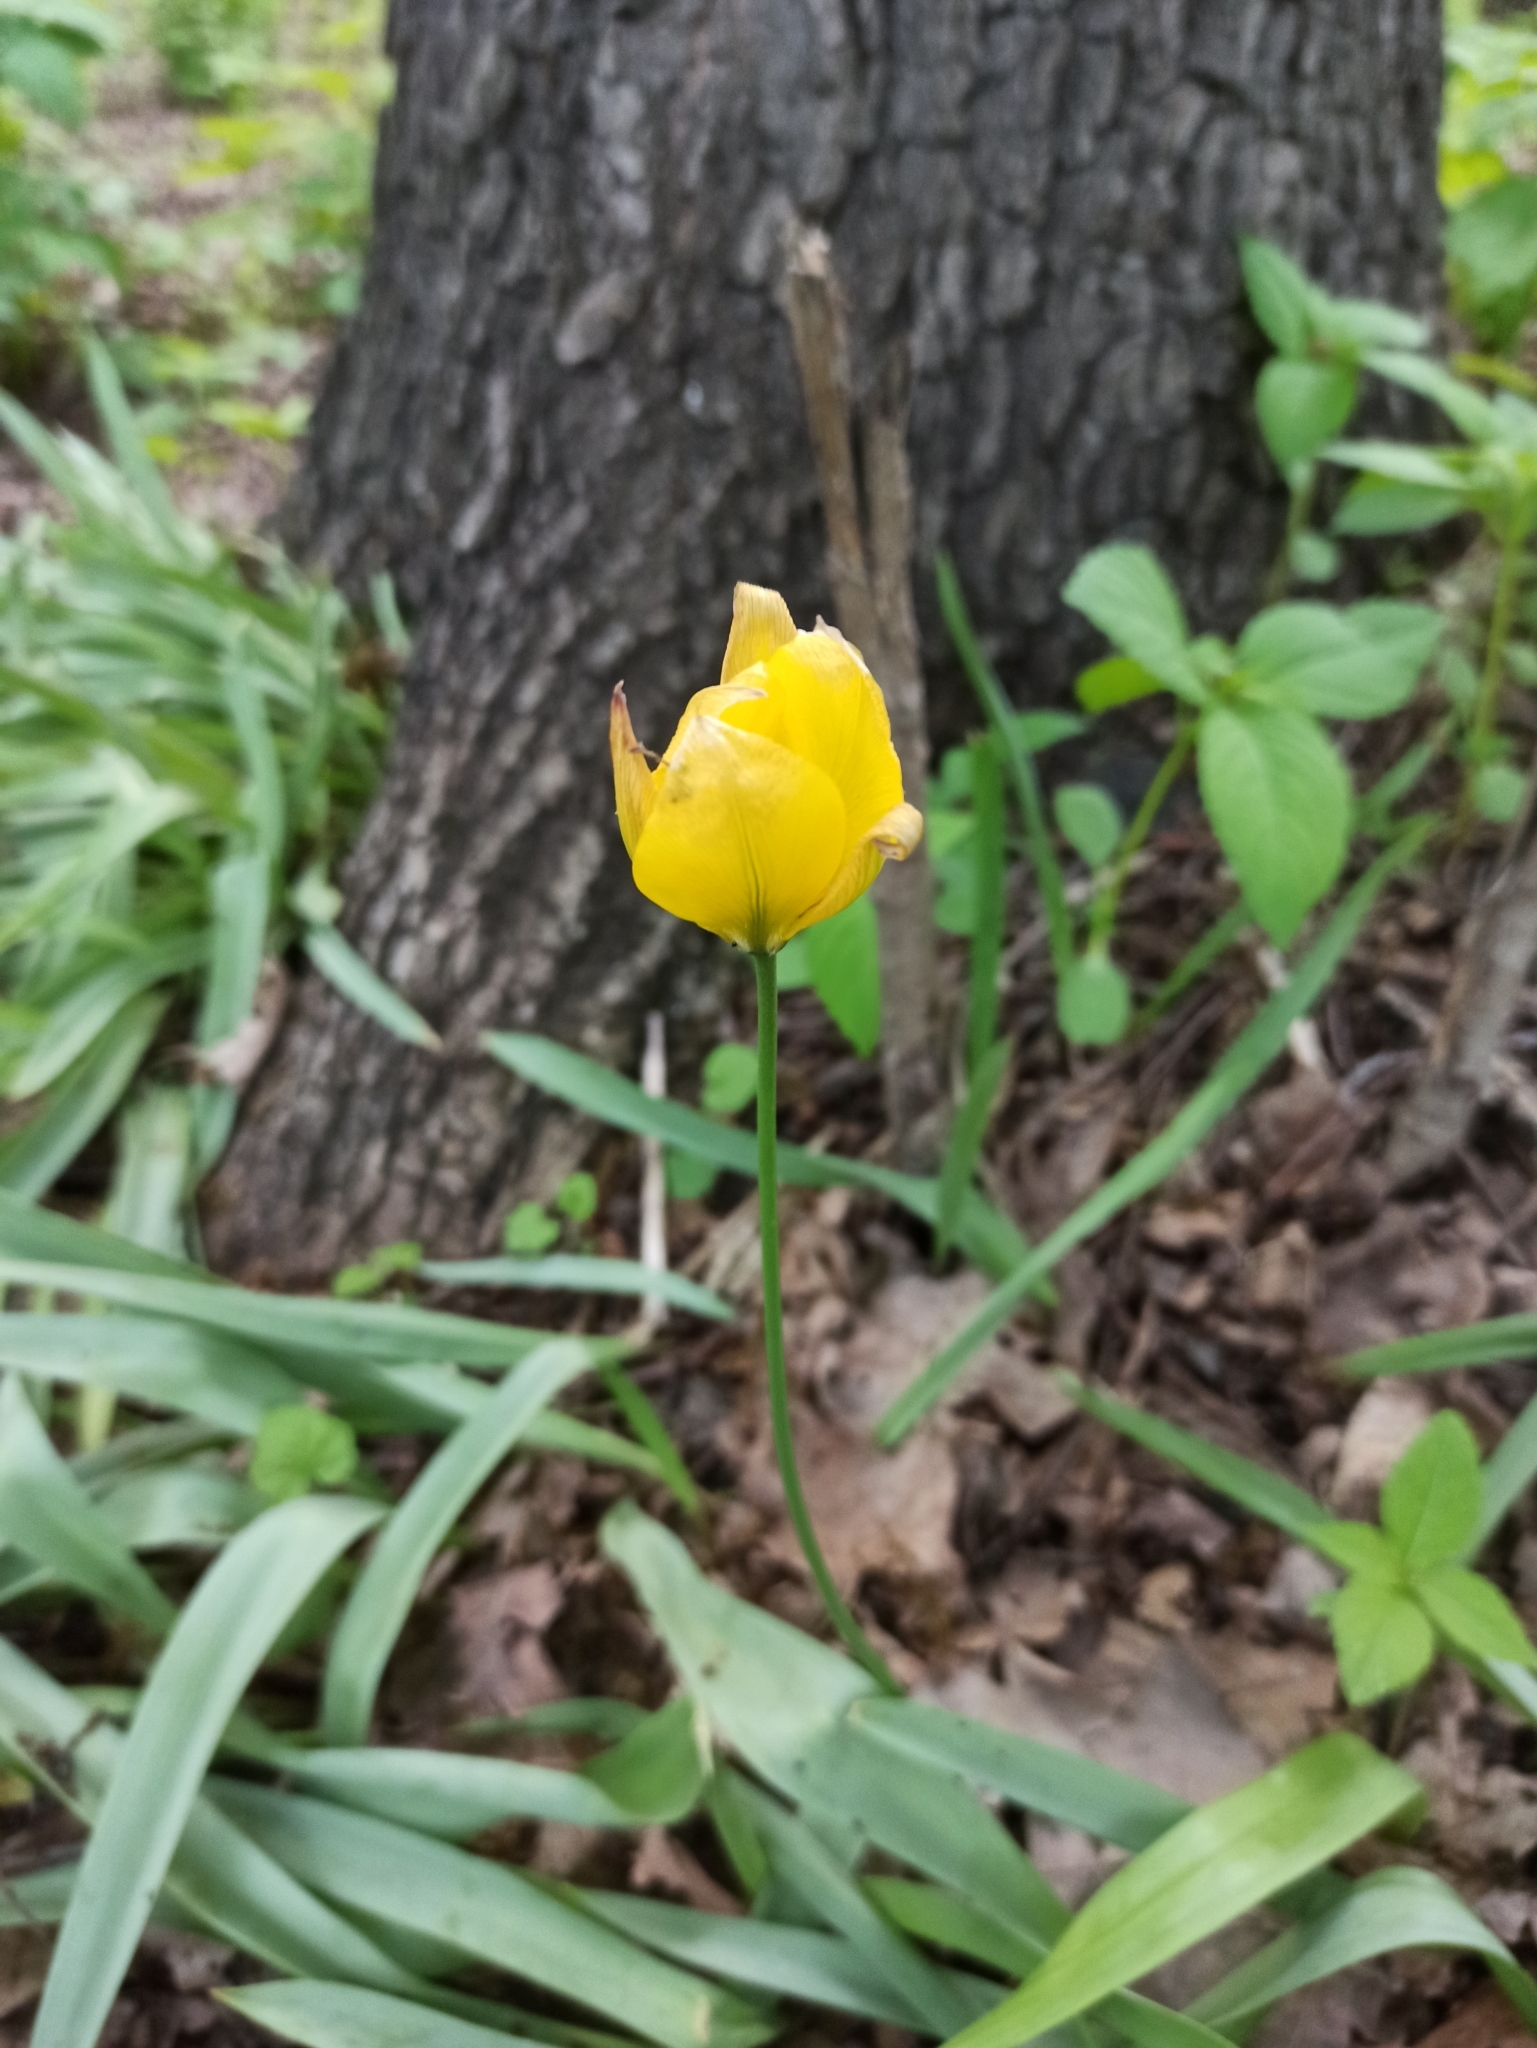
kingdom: Plantae
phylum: Tracheophyta
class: Liliopsida
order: Liliales
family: Liliaceae
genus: Tulipa
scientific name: Tulipa sylvestris
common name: Wild tulip
